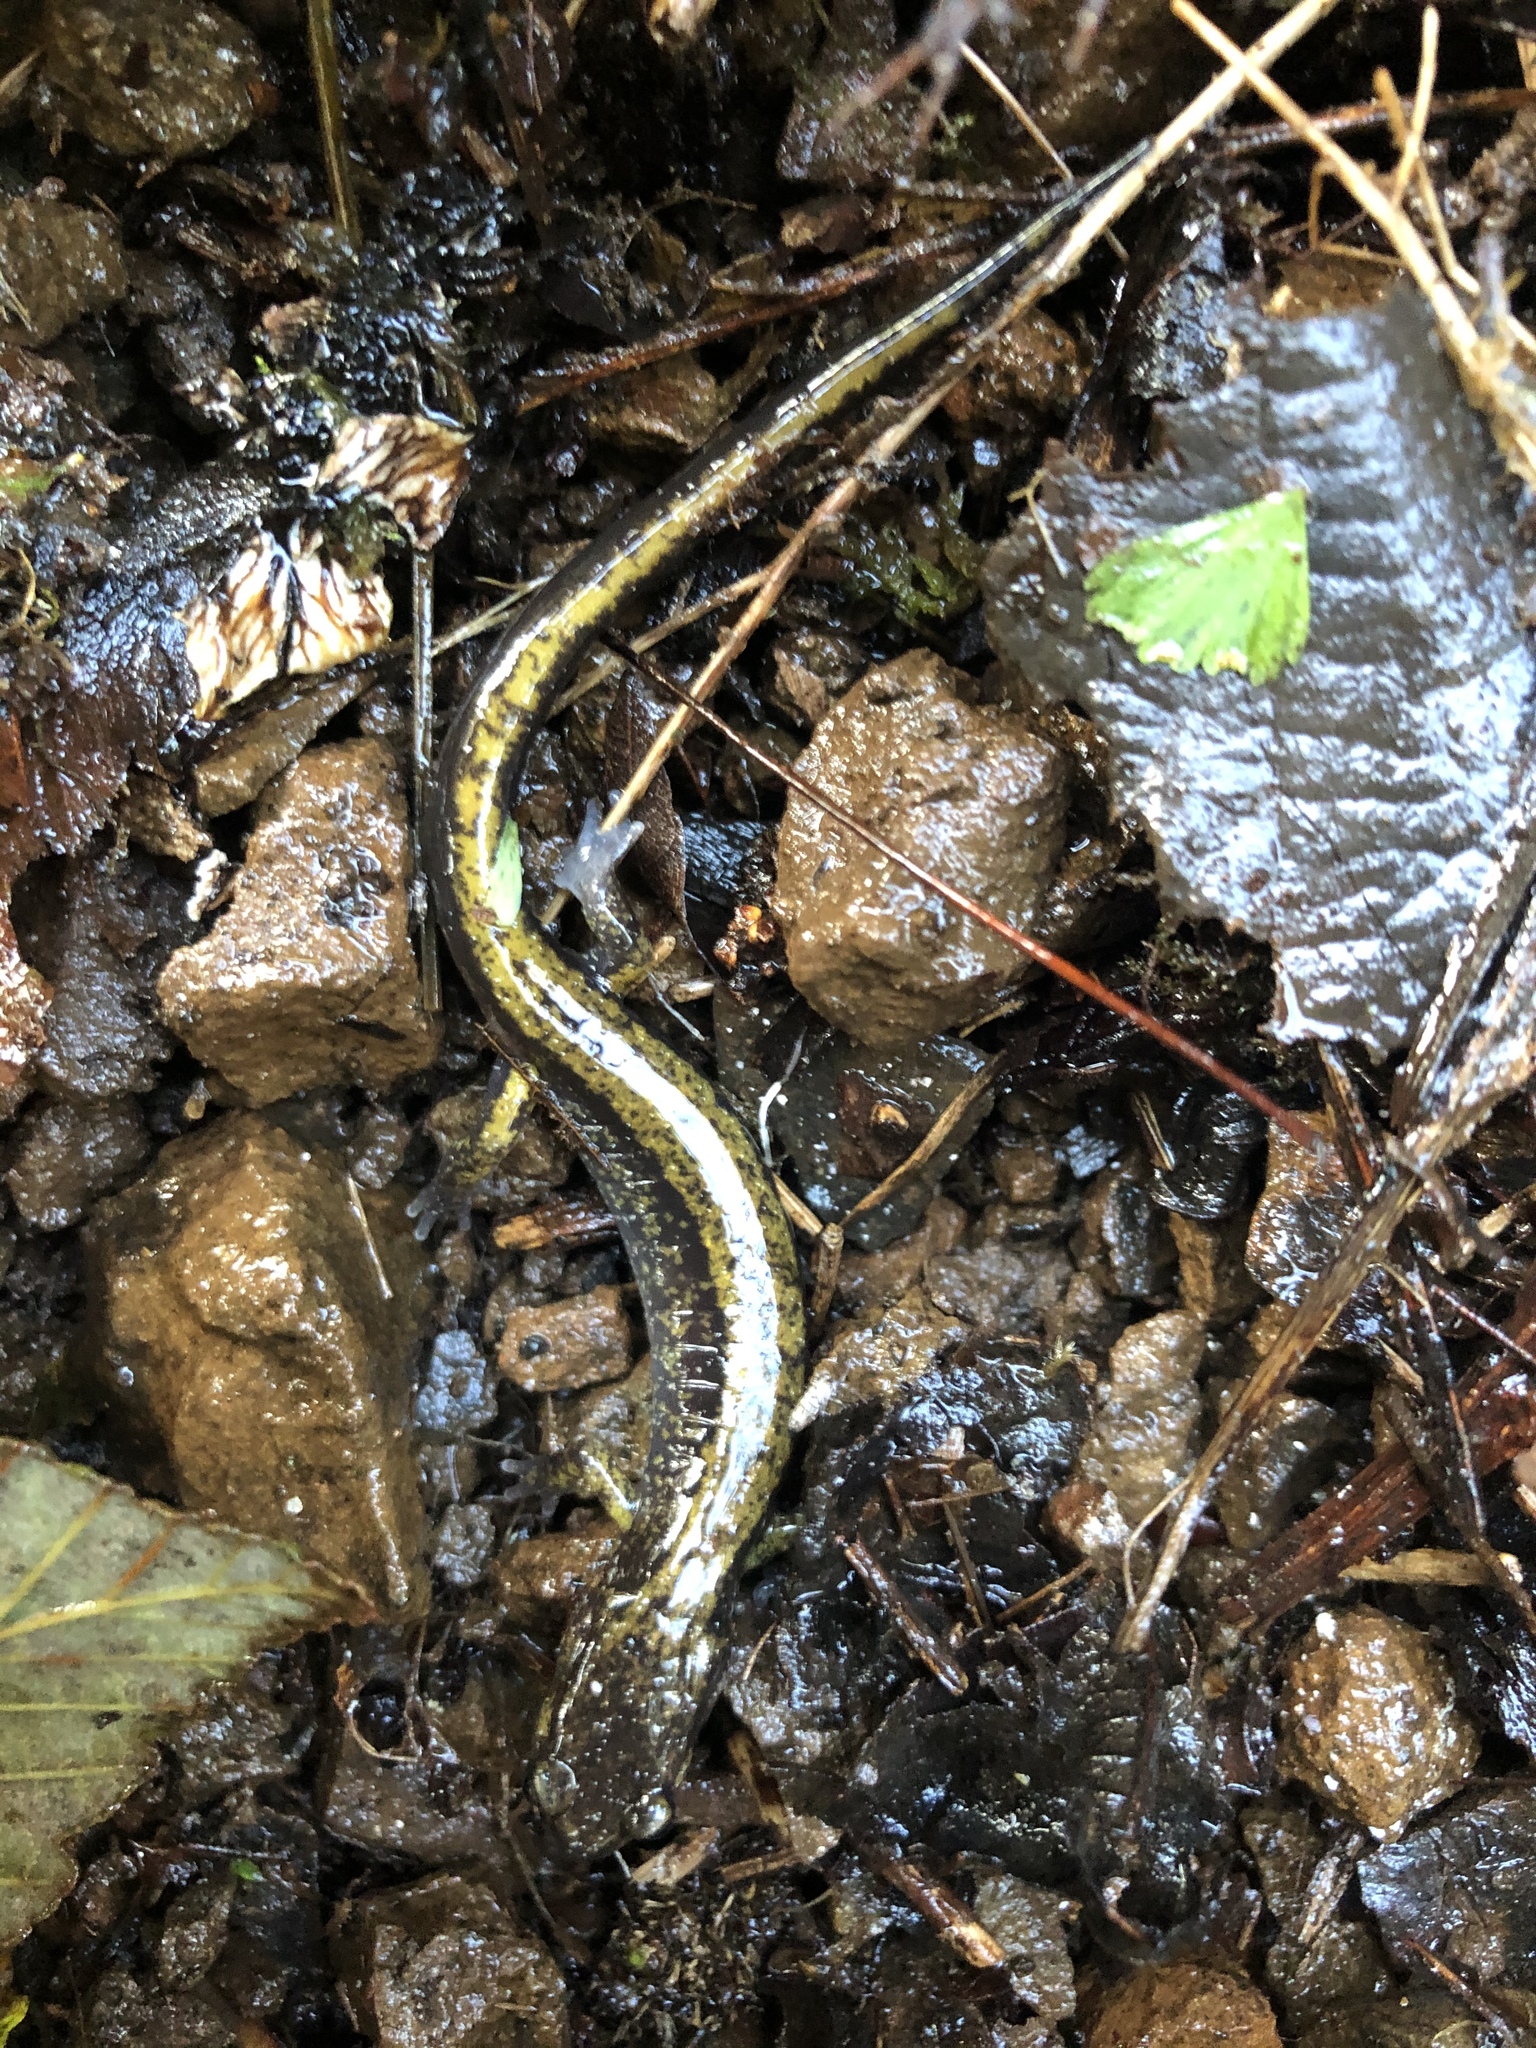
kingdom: Animalia
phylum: Chordata
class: Amphibia
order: Caudata
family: Plethodontidae
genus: Plethodon
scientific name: Plethodon dunni
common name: Dunn's salamander
